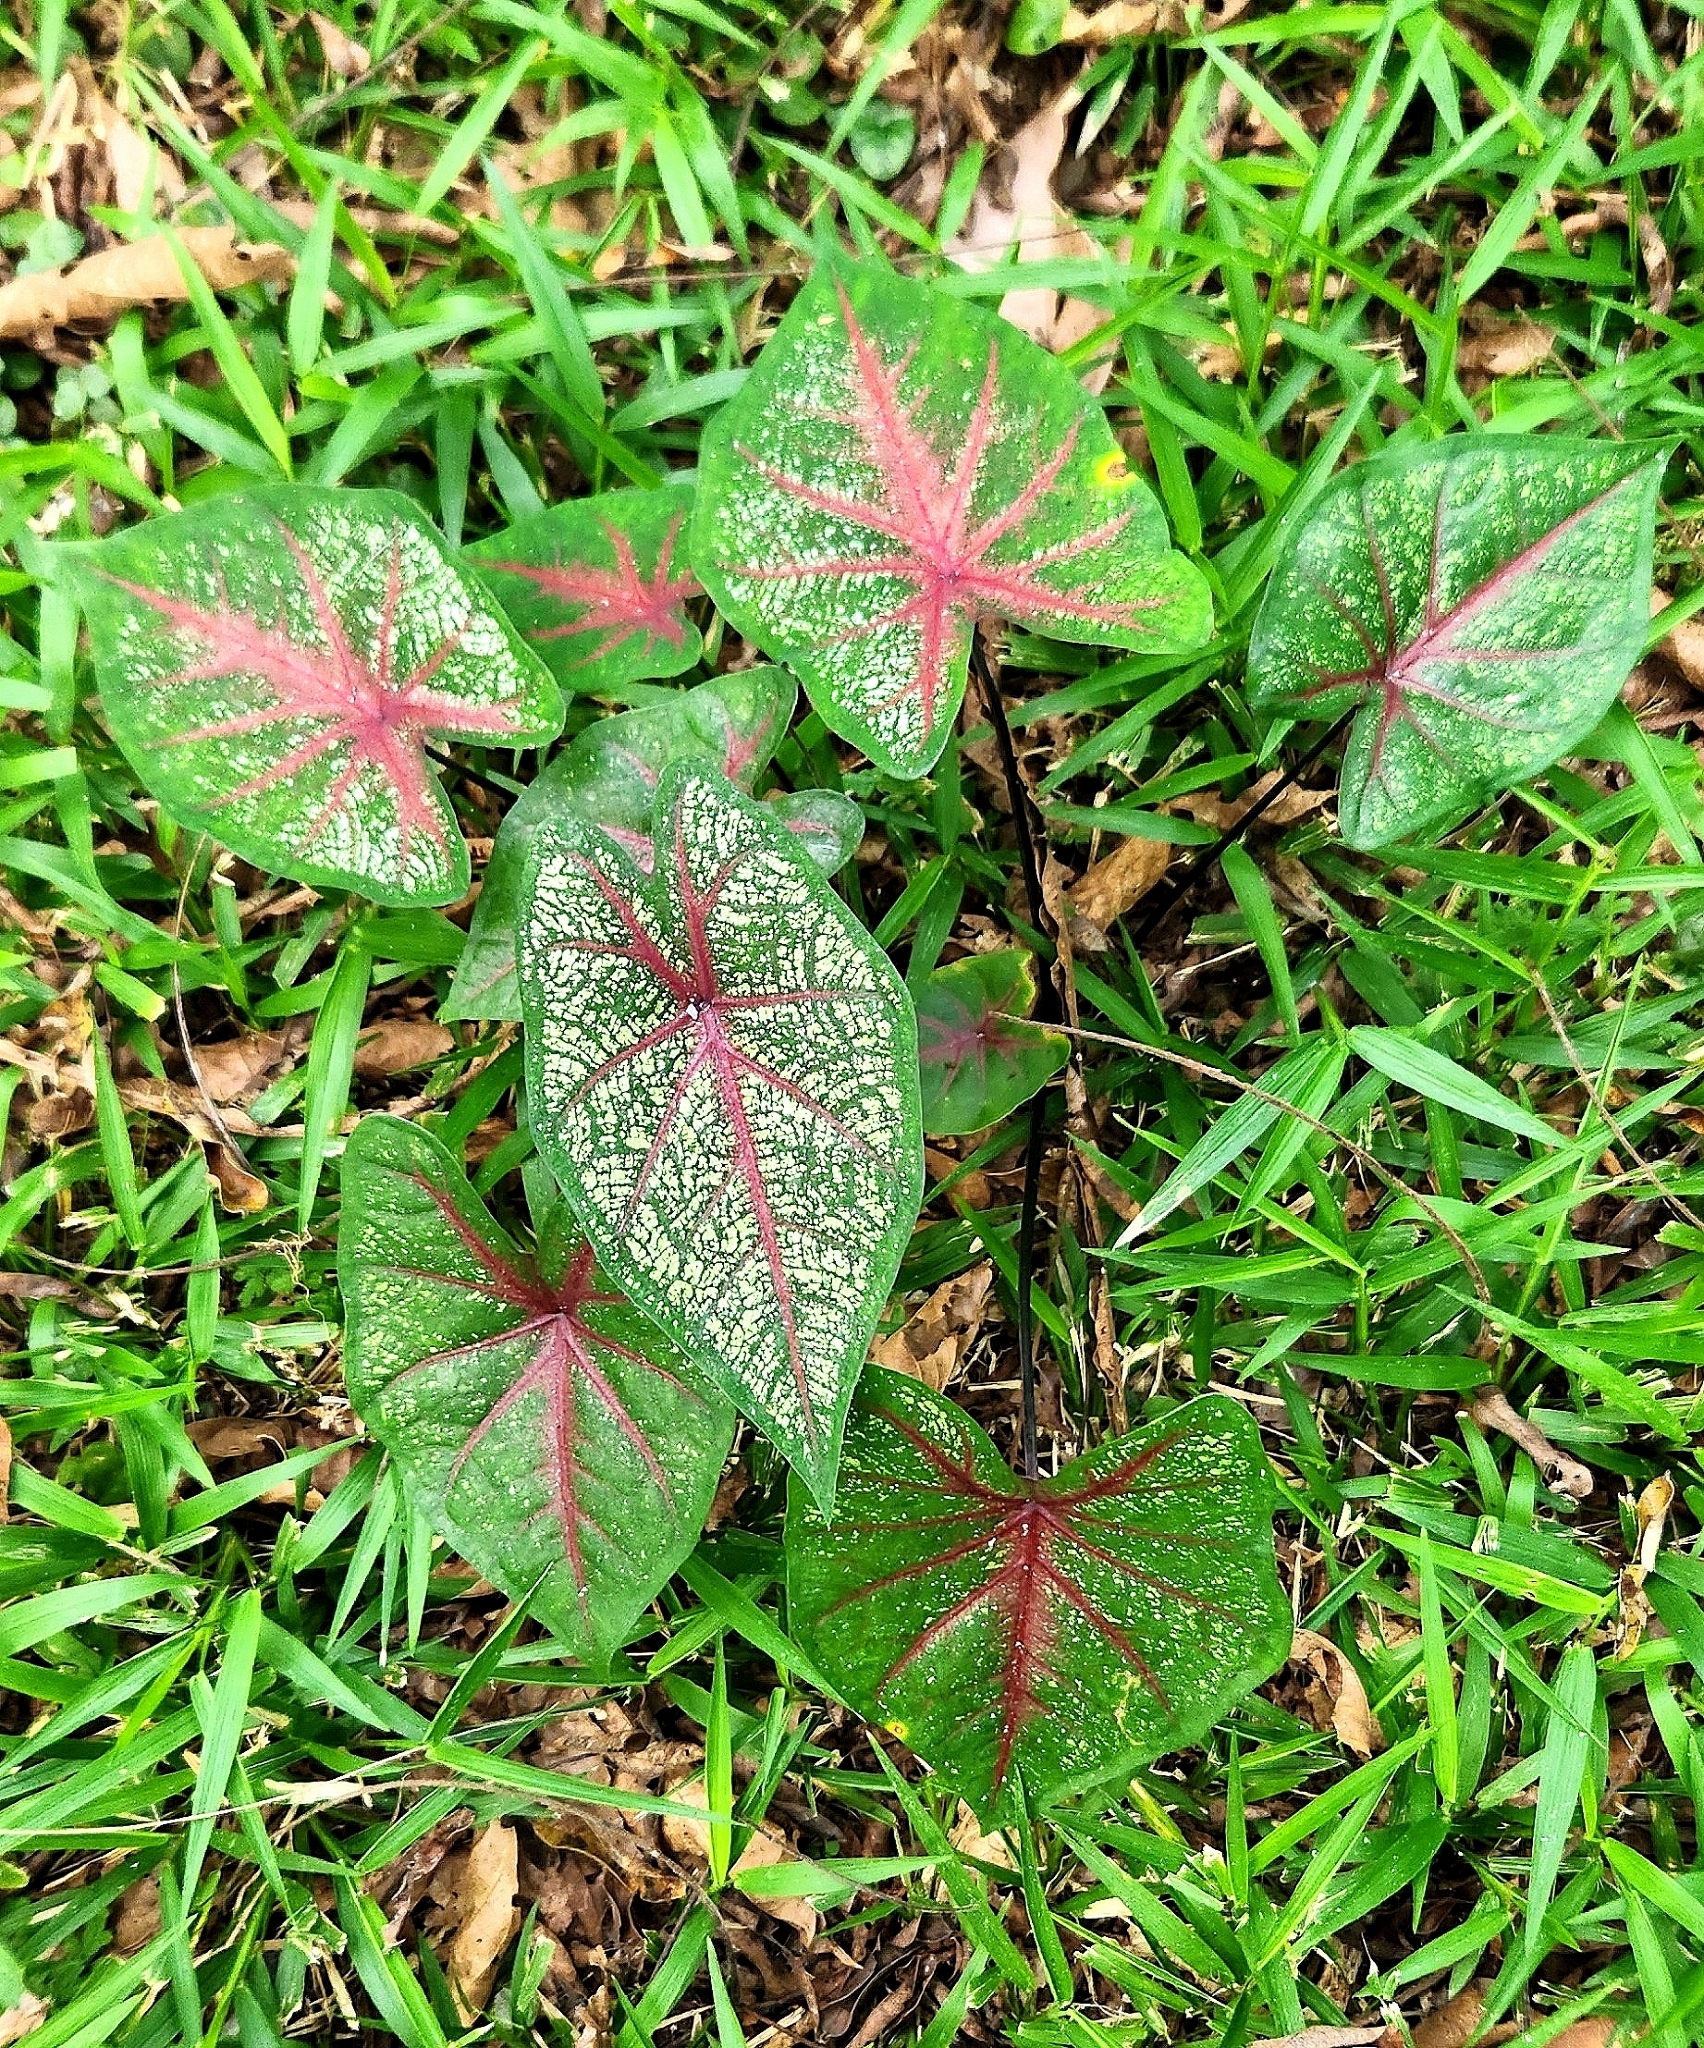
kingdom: Plantae
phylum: Tracheophyta
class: Liliopsida
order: Alismatales
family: Araceae
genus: Caladium
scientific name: Caladium bicolor
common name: Artist's pallet
